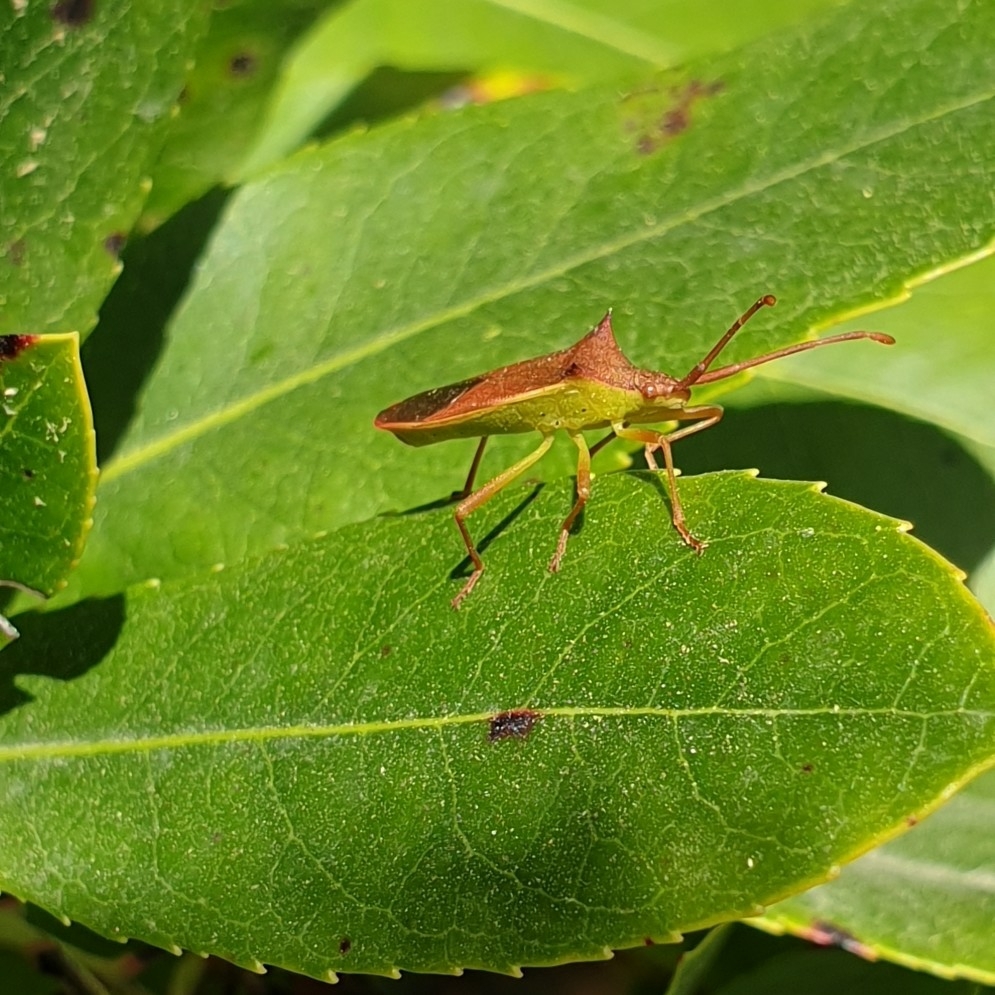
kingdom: Animalia
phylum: Arthropoda
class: Insecta
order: Hemiptera
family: Coreidae
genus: Gonocerus
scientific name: Gonocerus insidiator
